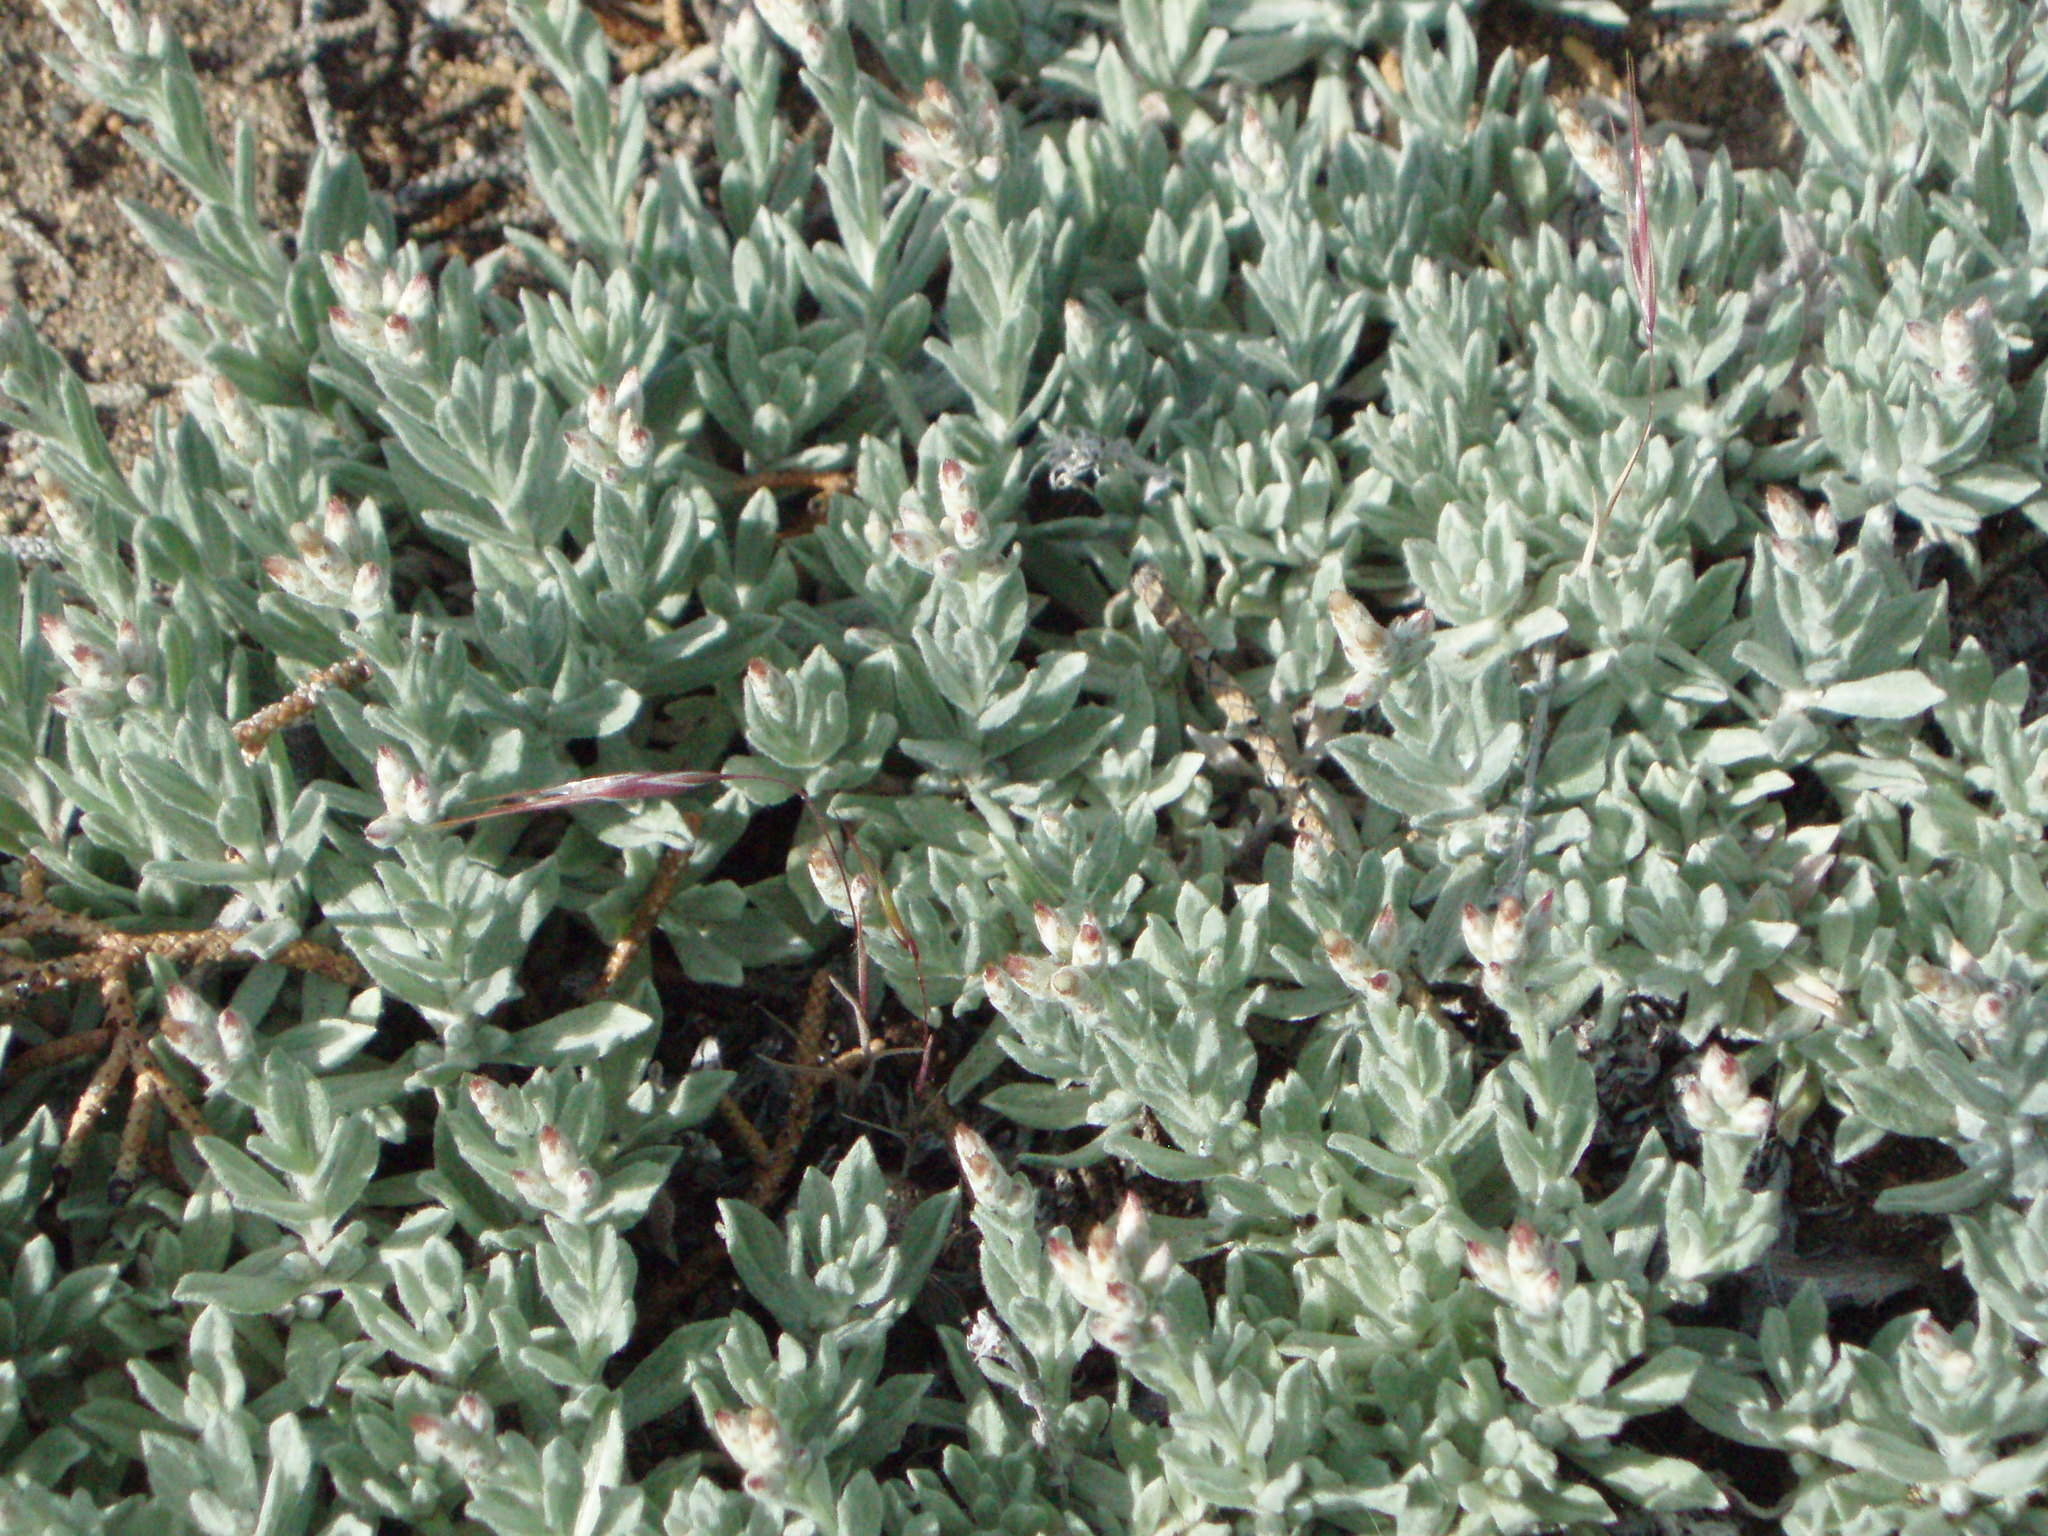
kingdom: Plantae
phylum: Tracheophyta
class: Magnoliopsida
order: Asterales
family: Asteraceae
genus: Antennaria
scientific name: Antennaria geyeri
